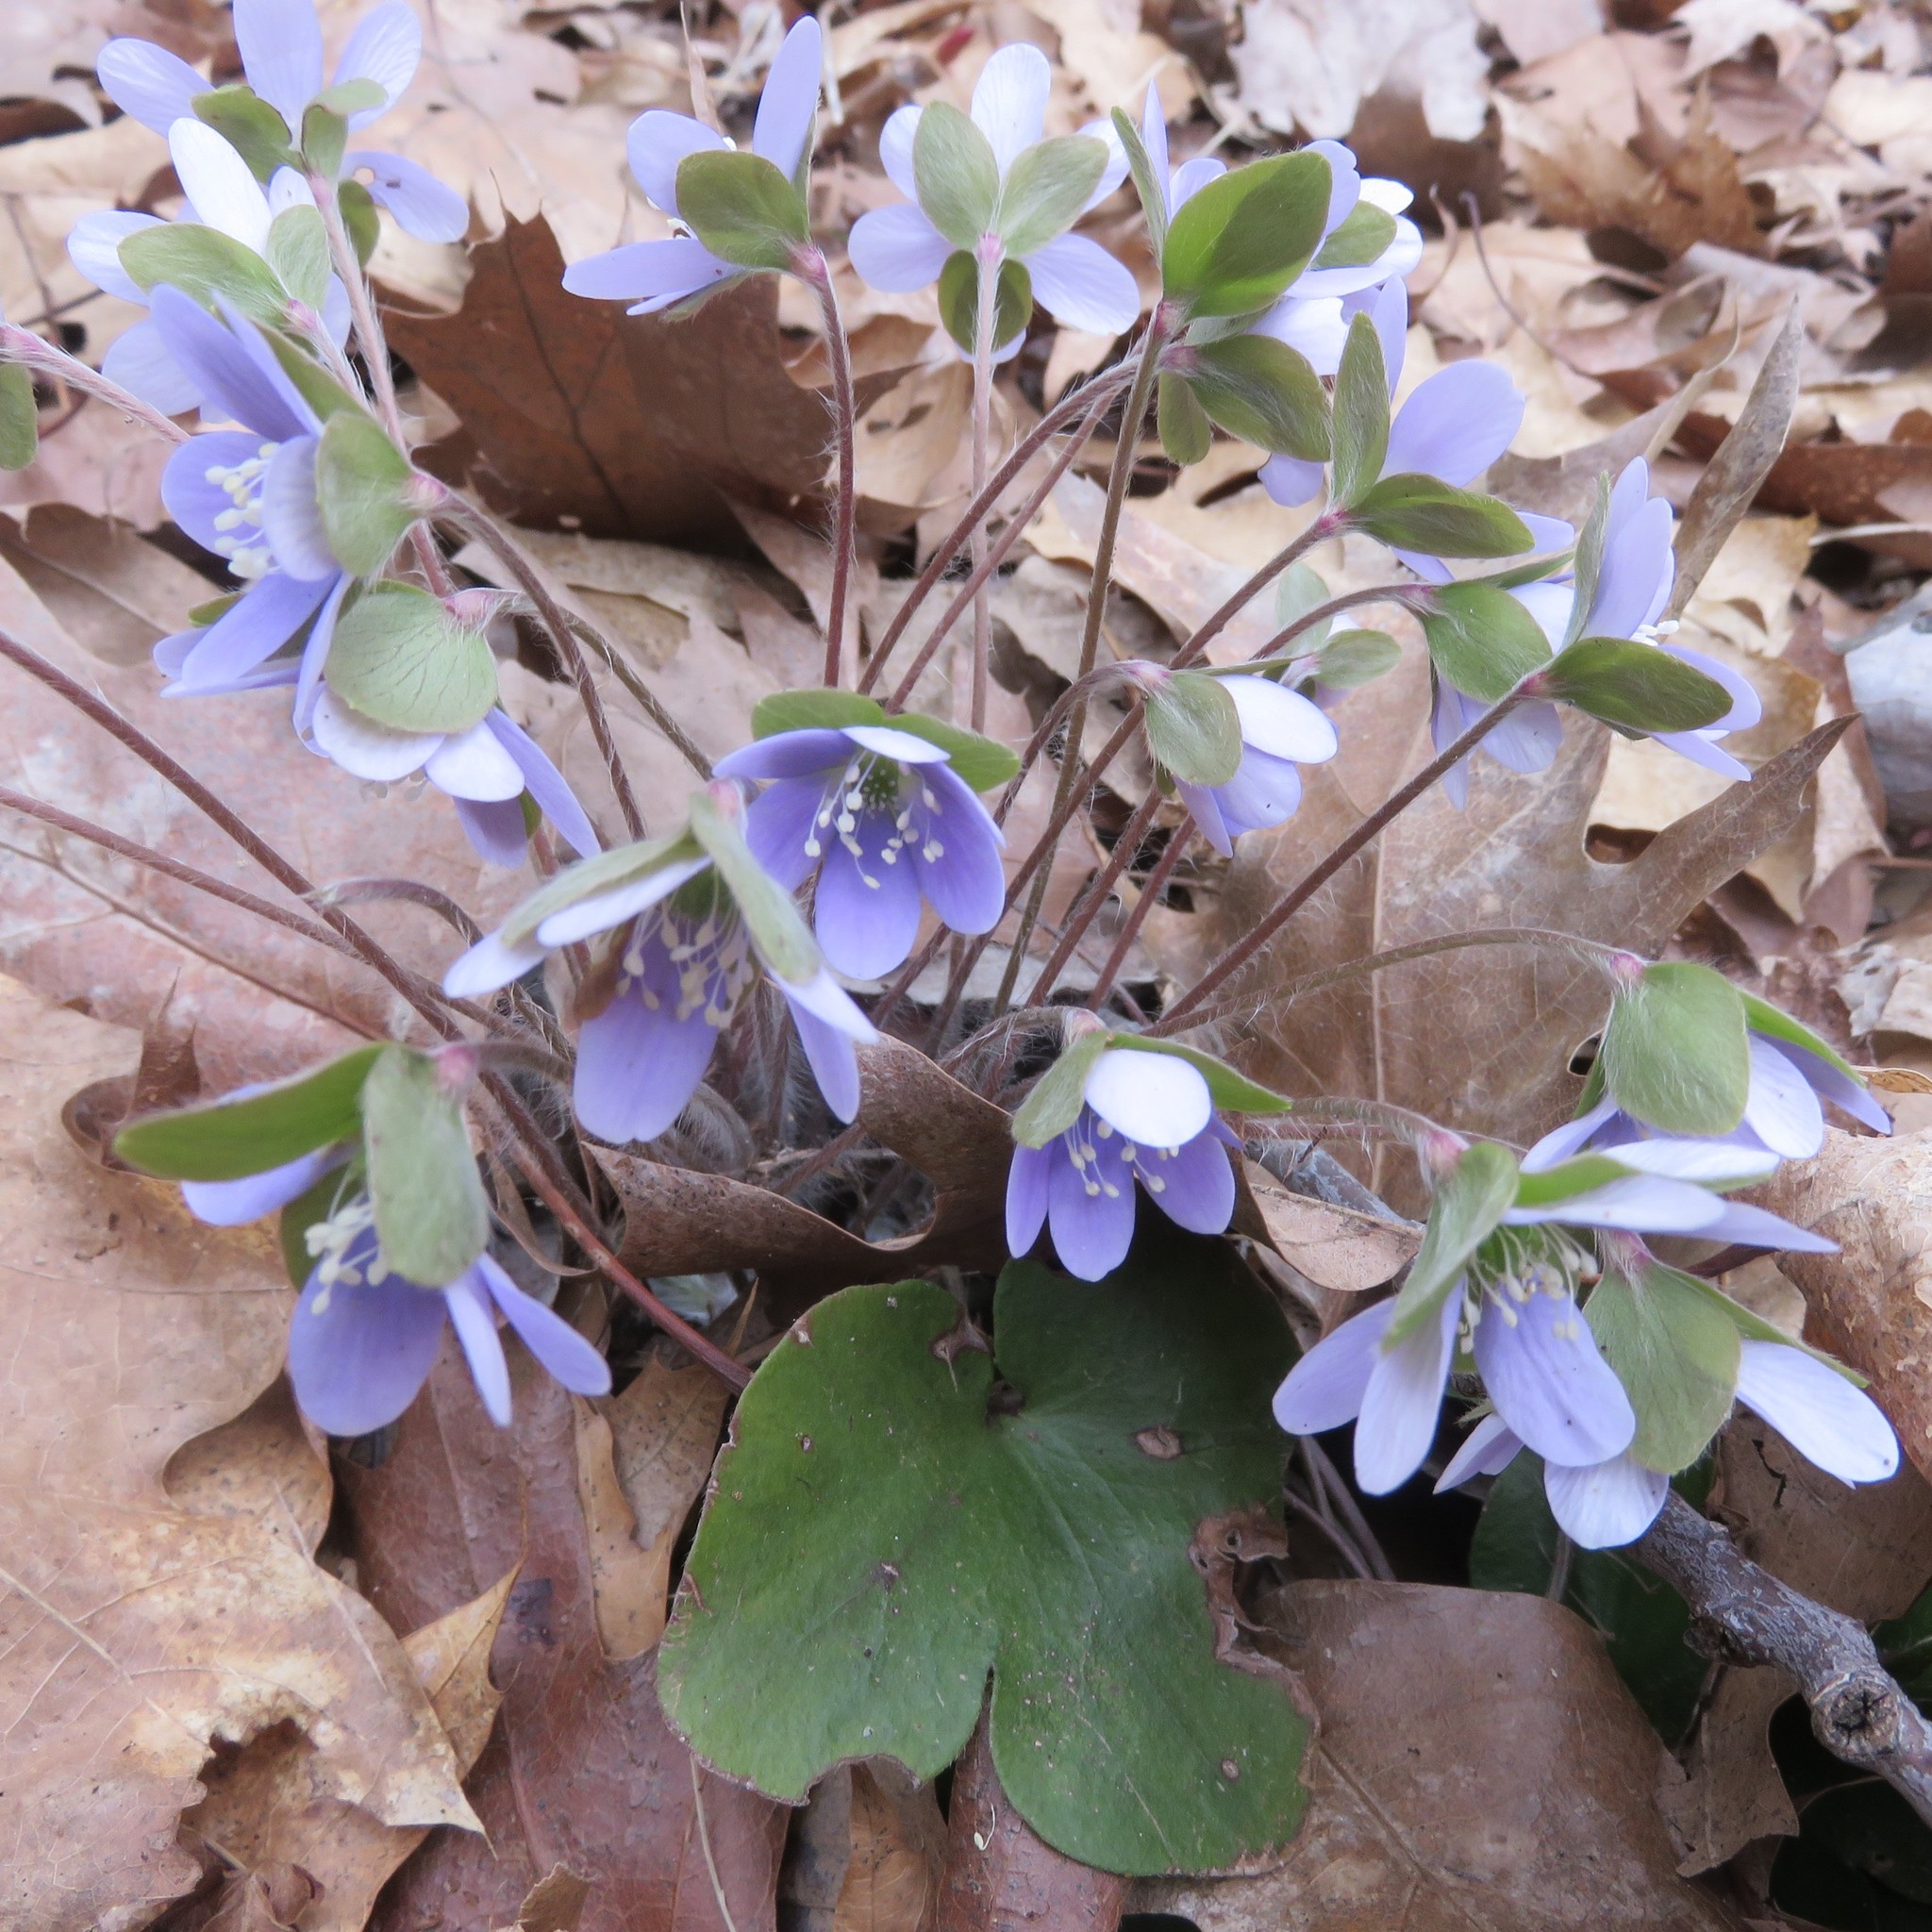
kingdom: Plantae
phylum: Tracheophyta
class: Magnoliopsida
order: Ranunculales
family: Ranunculaceae
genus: Hepatica
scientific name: Hepatica americana
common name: American hepatica
